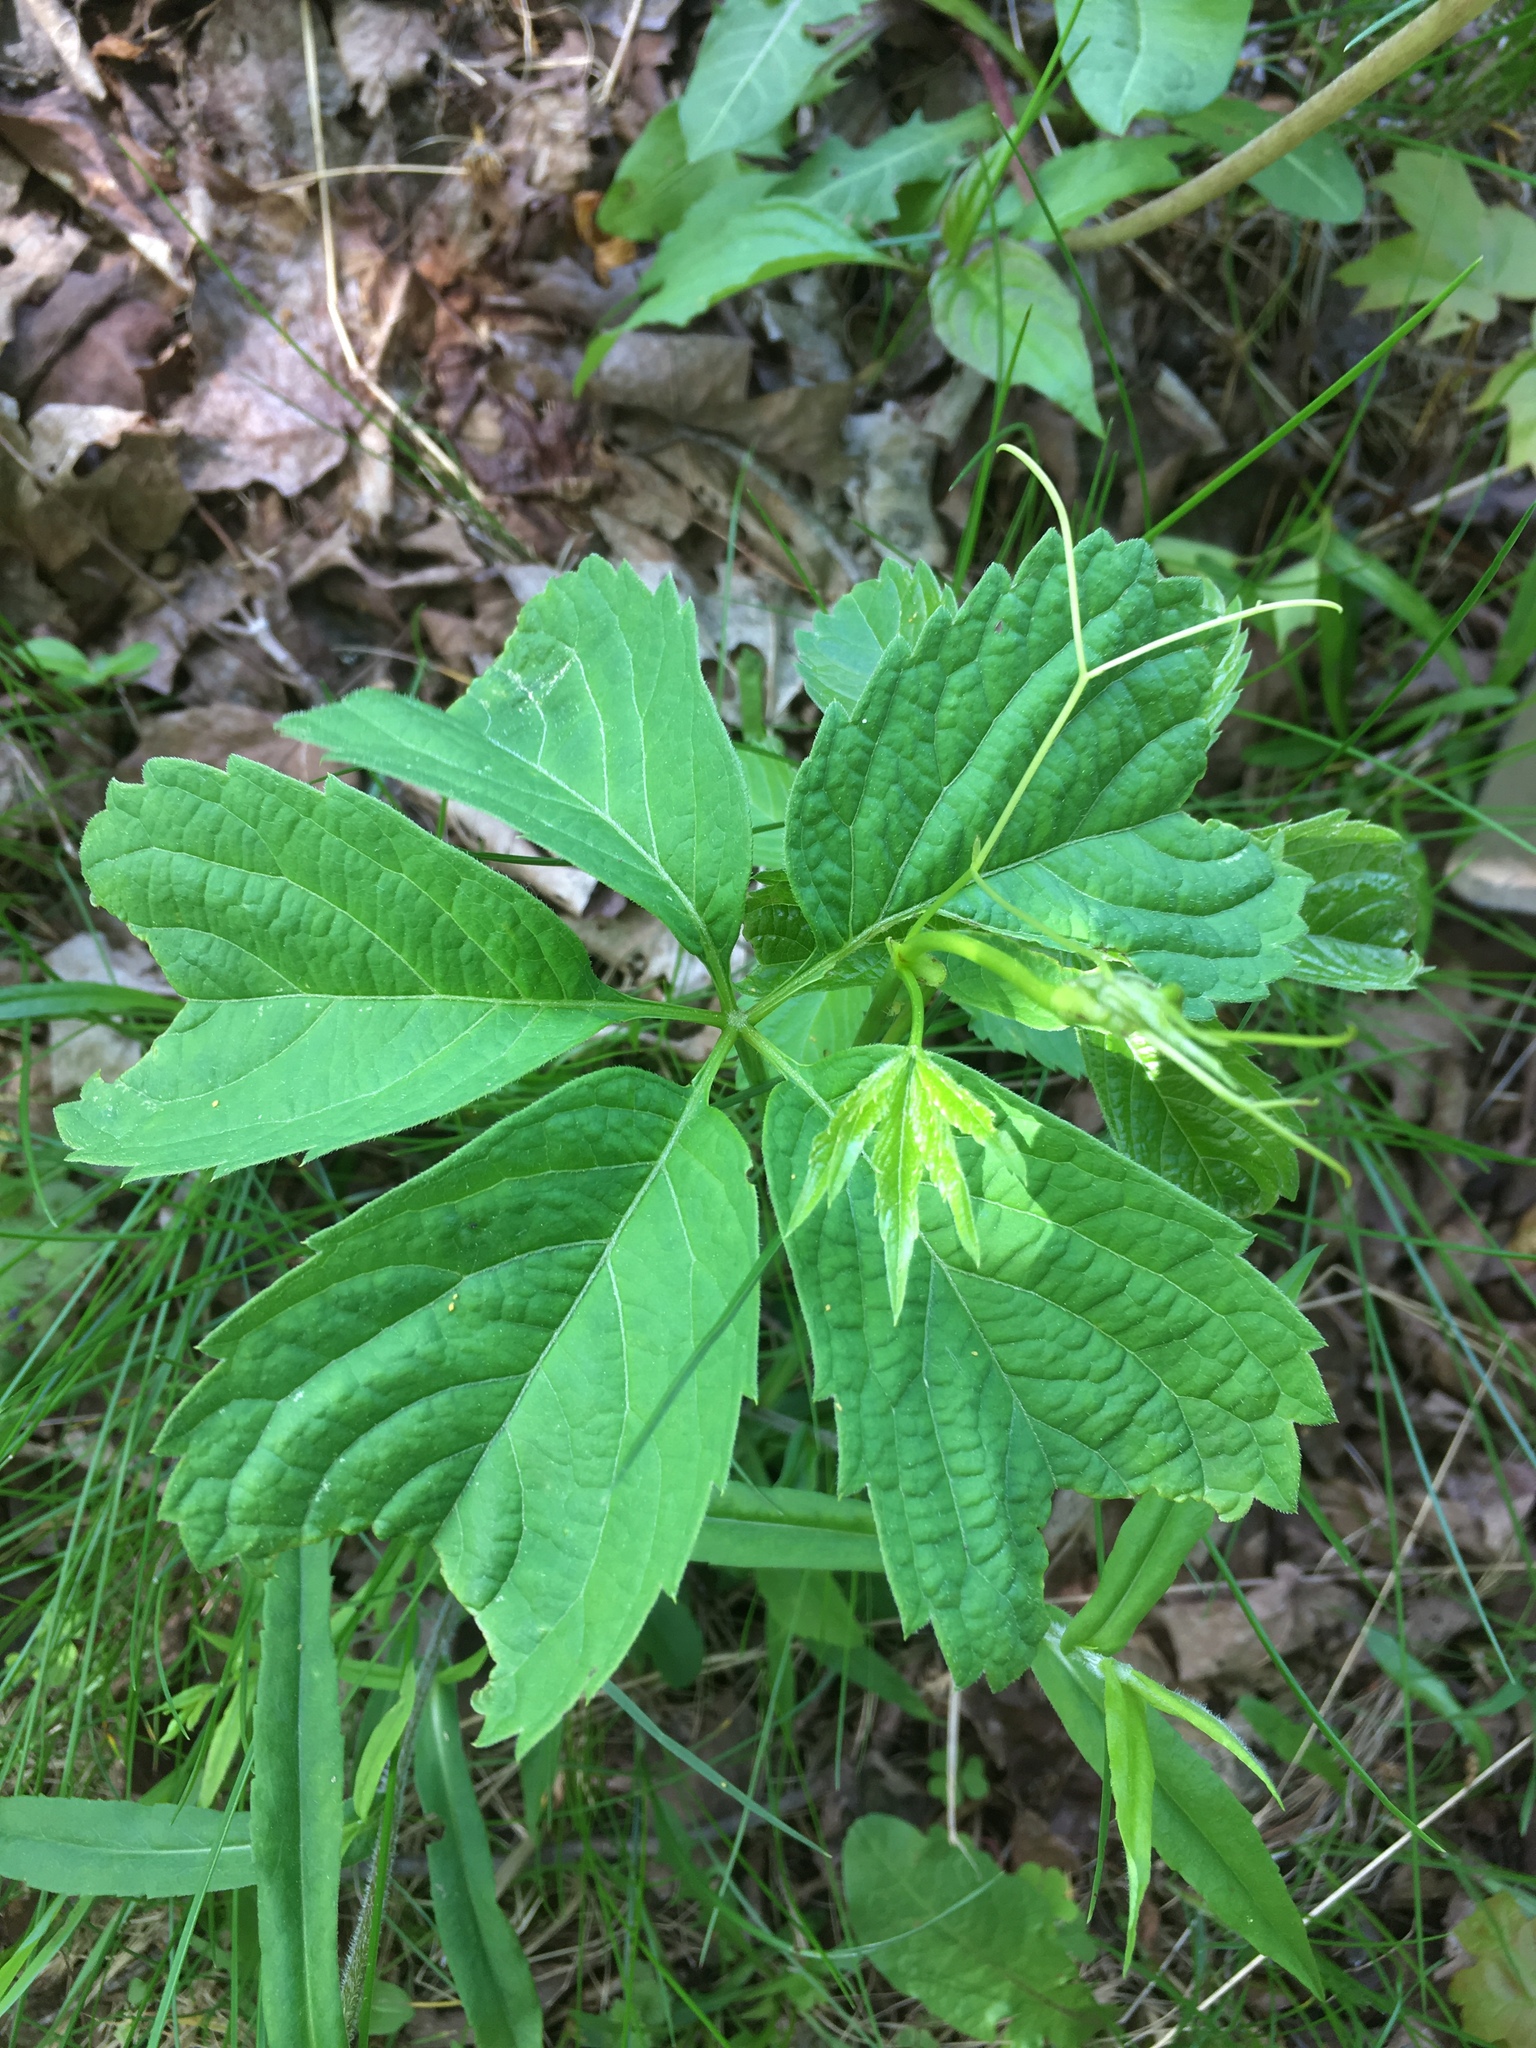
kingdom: Plantae
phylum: Tracheophyta
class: Magnoliopsida
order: Vitales
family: Vitaceae
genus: Parthenocissus
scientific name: Parthenocissus inserta
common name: False virginia-creeper
